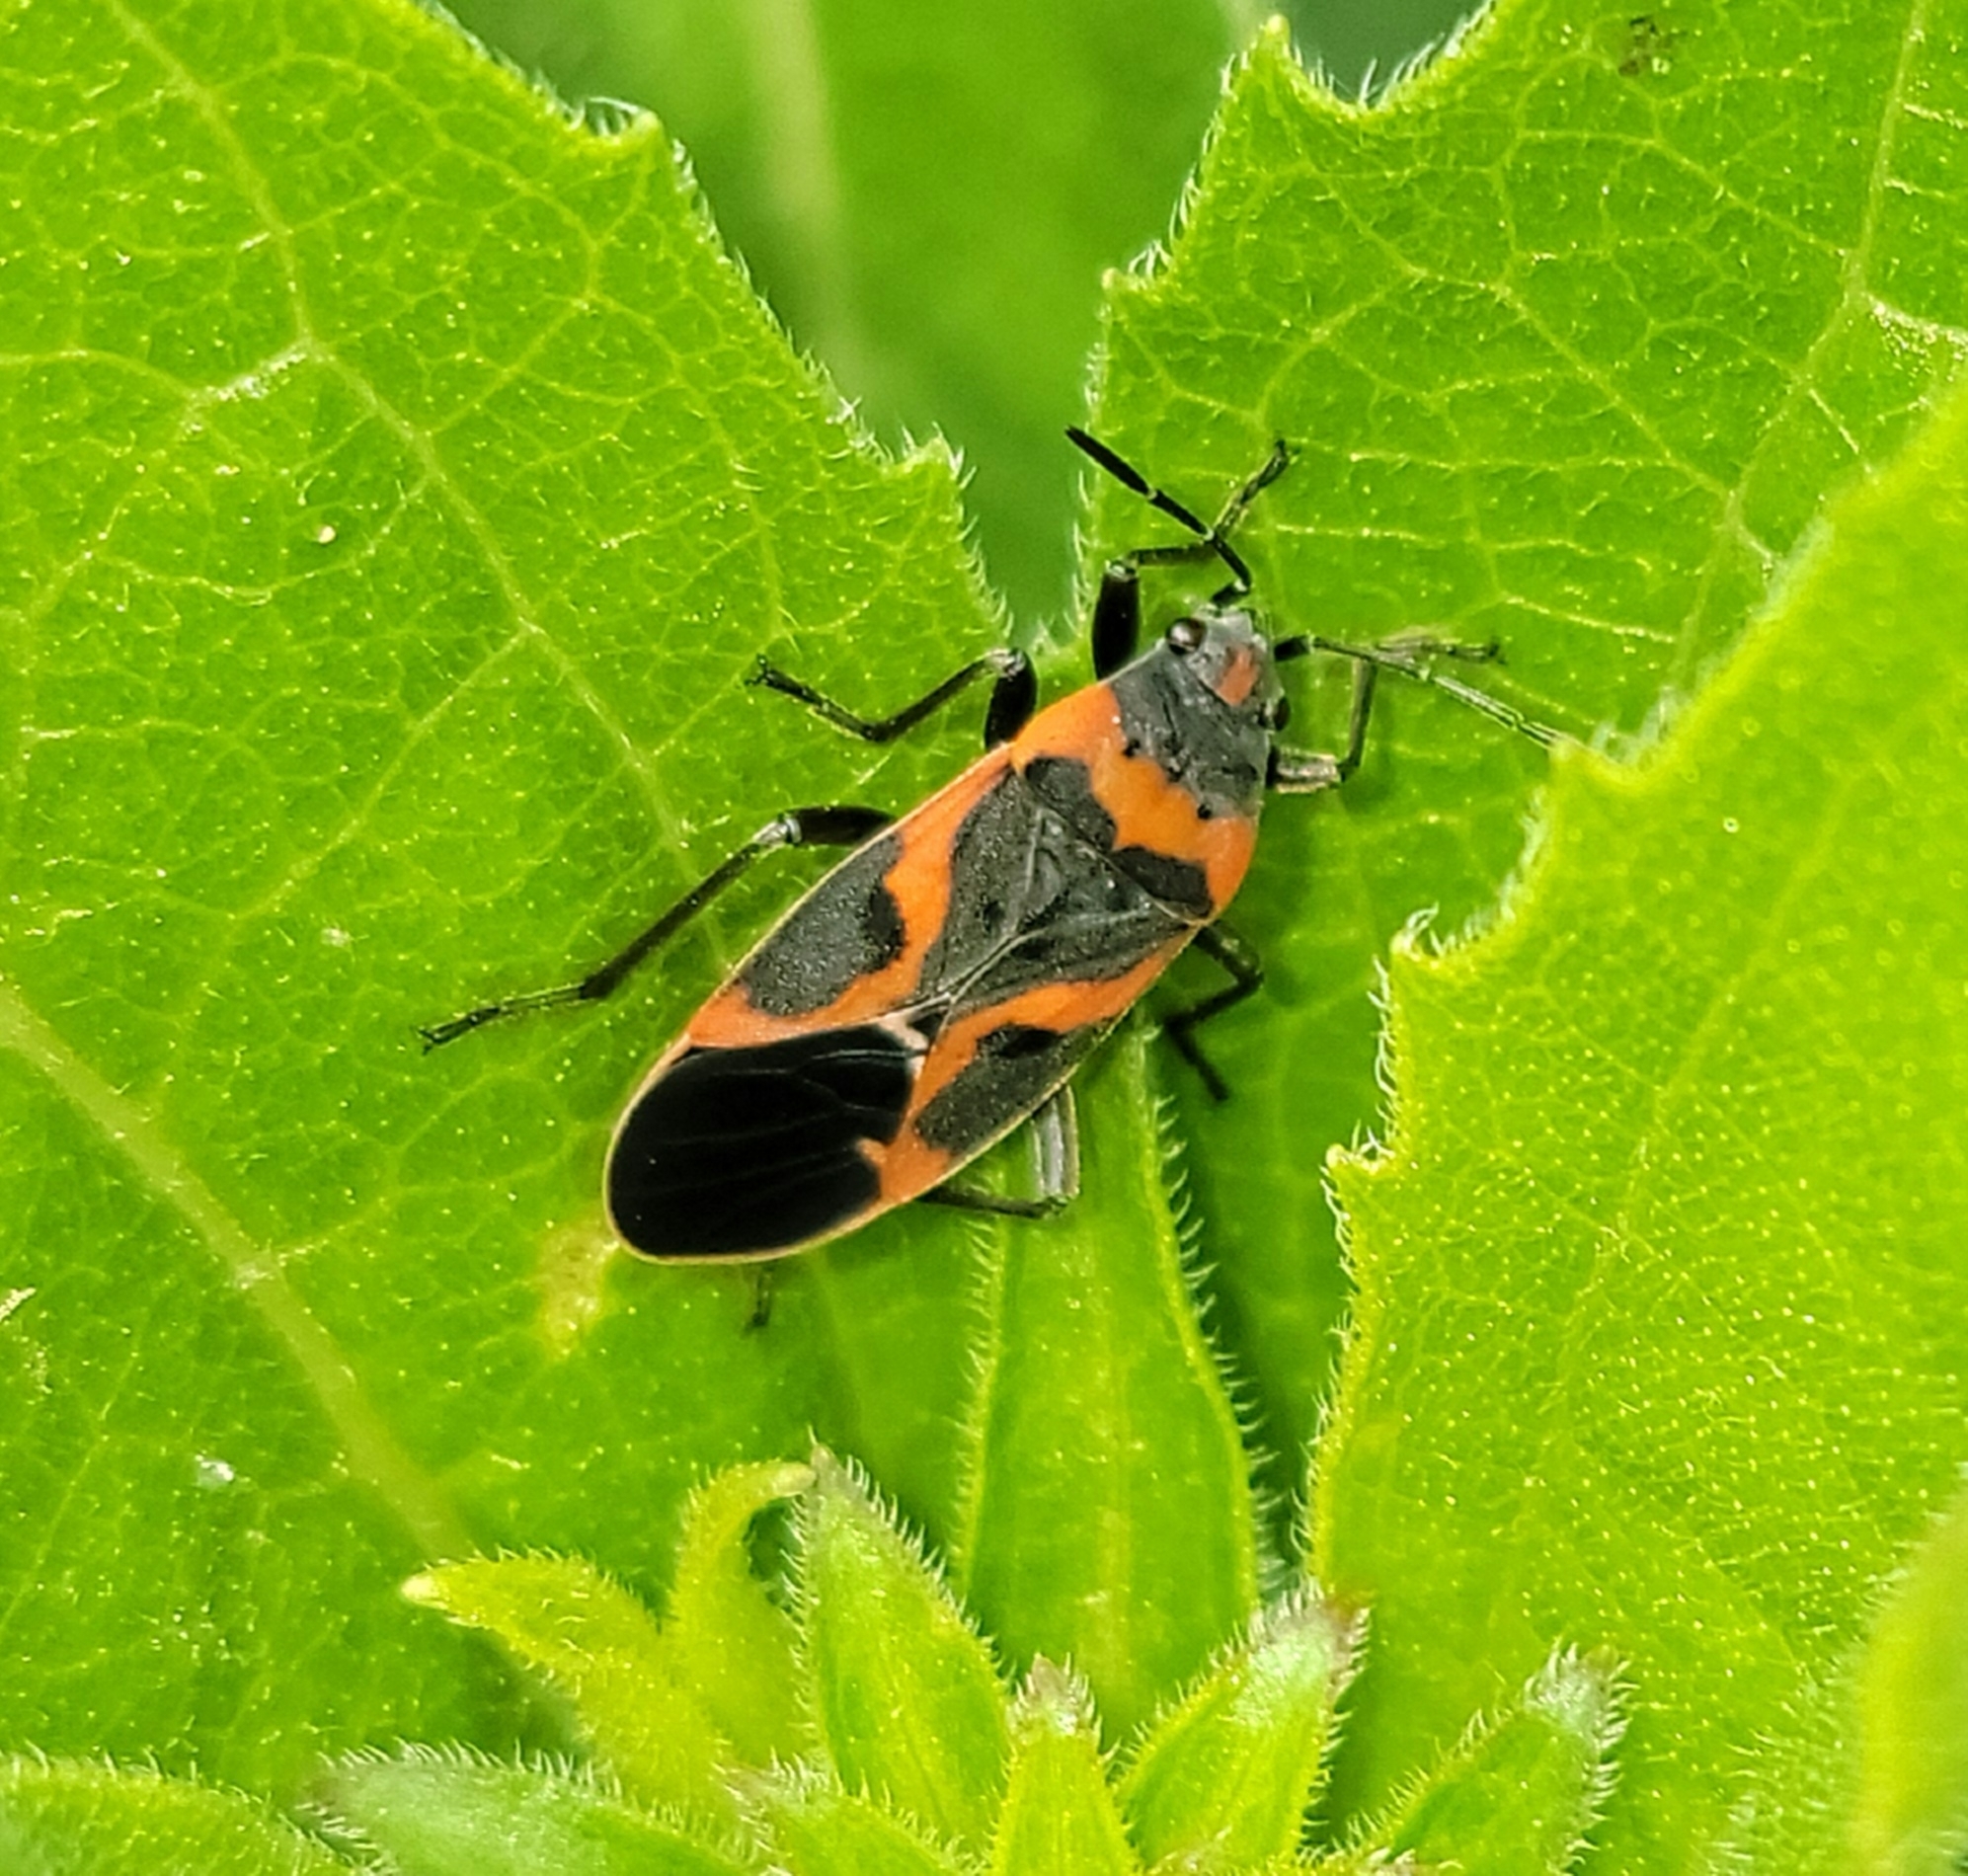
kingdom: Animalia
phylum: Arthropoda
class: Insecta
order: Hemiptera
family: Lygaeidae
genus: Lygaeus
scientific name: Lygaeus kalmii
